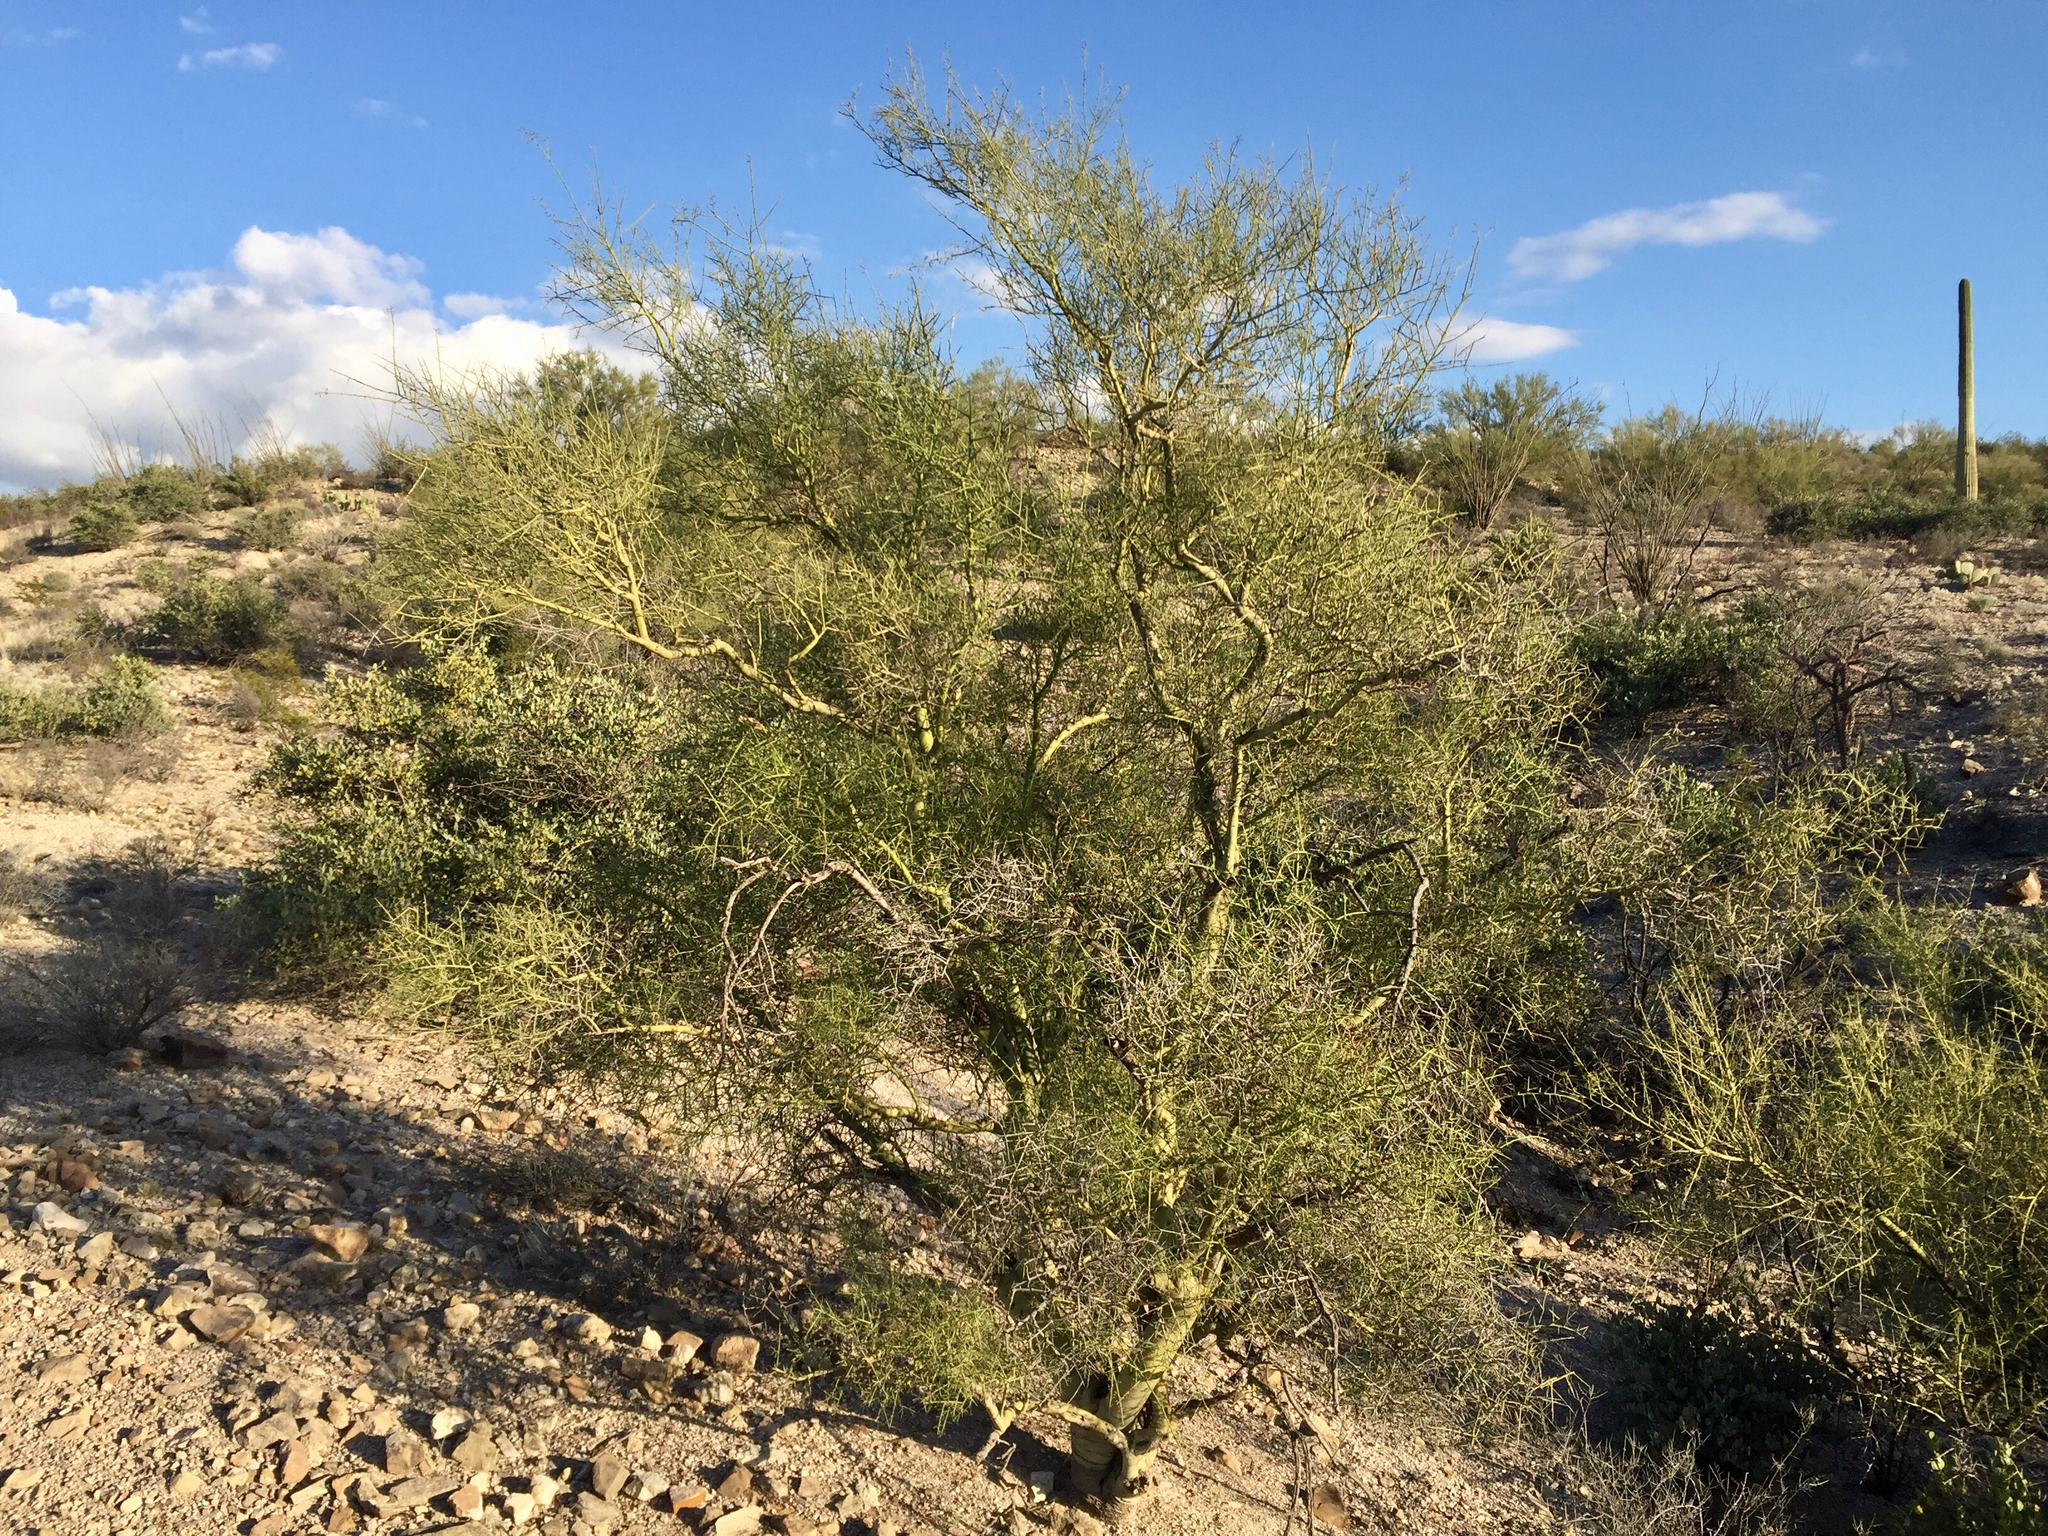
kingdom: Plantae
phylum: Tracheophyta
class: Magnoliopsida
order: Fabales
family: Fabaceae
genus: Parkinsonia
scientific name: Parkinsonia microphylla
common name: Yellow paloverde
